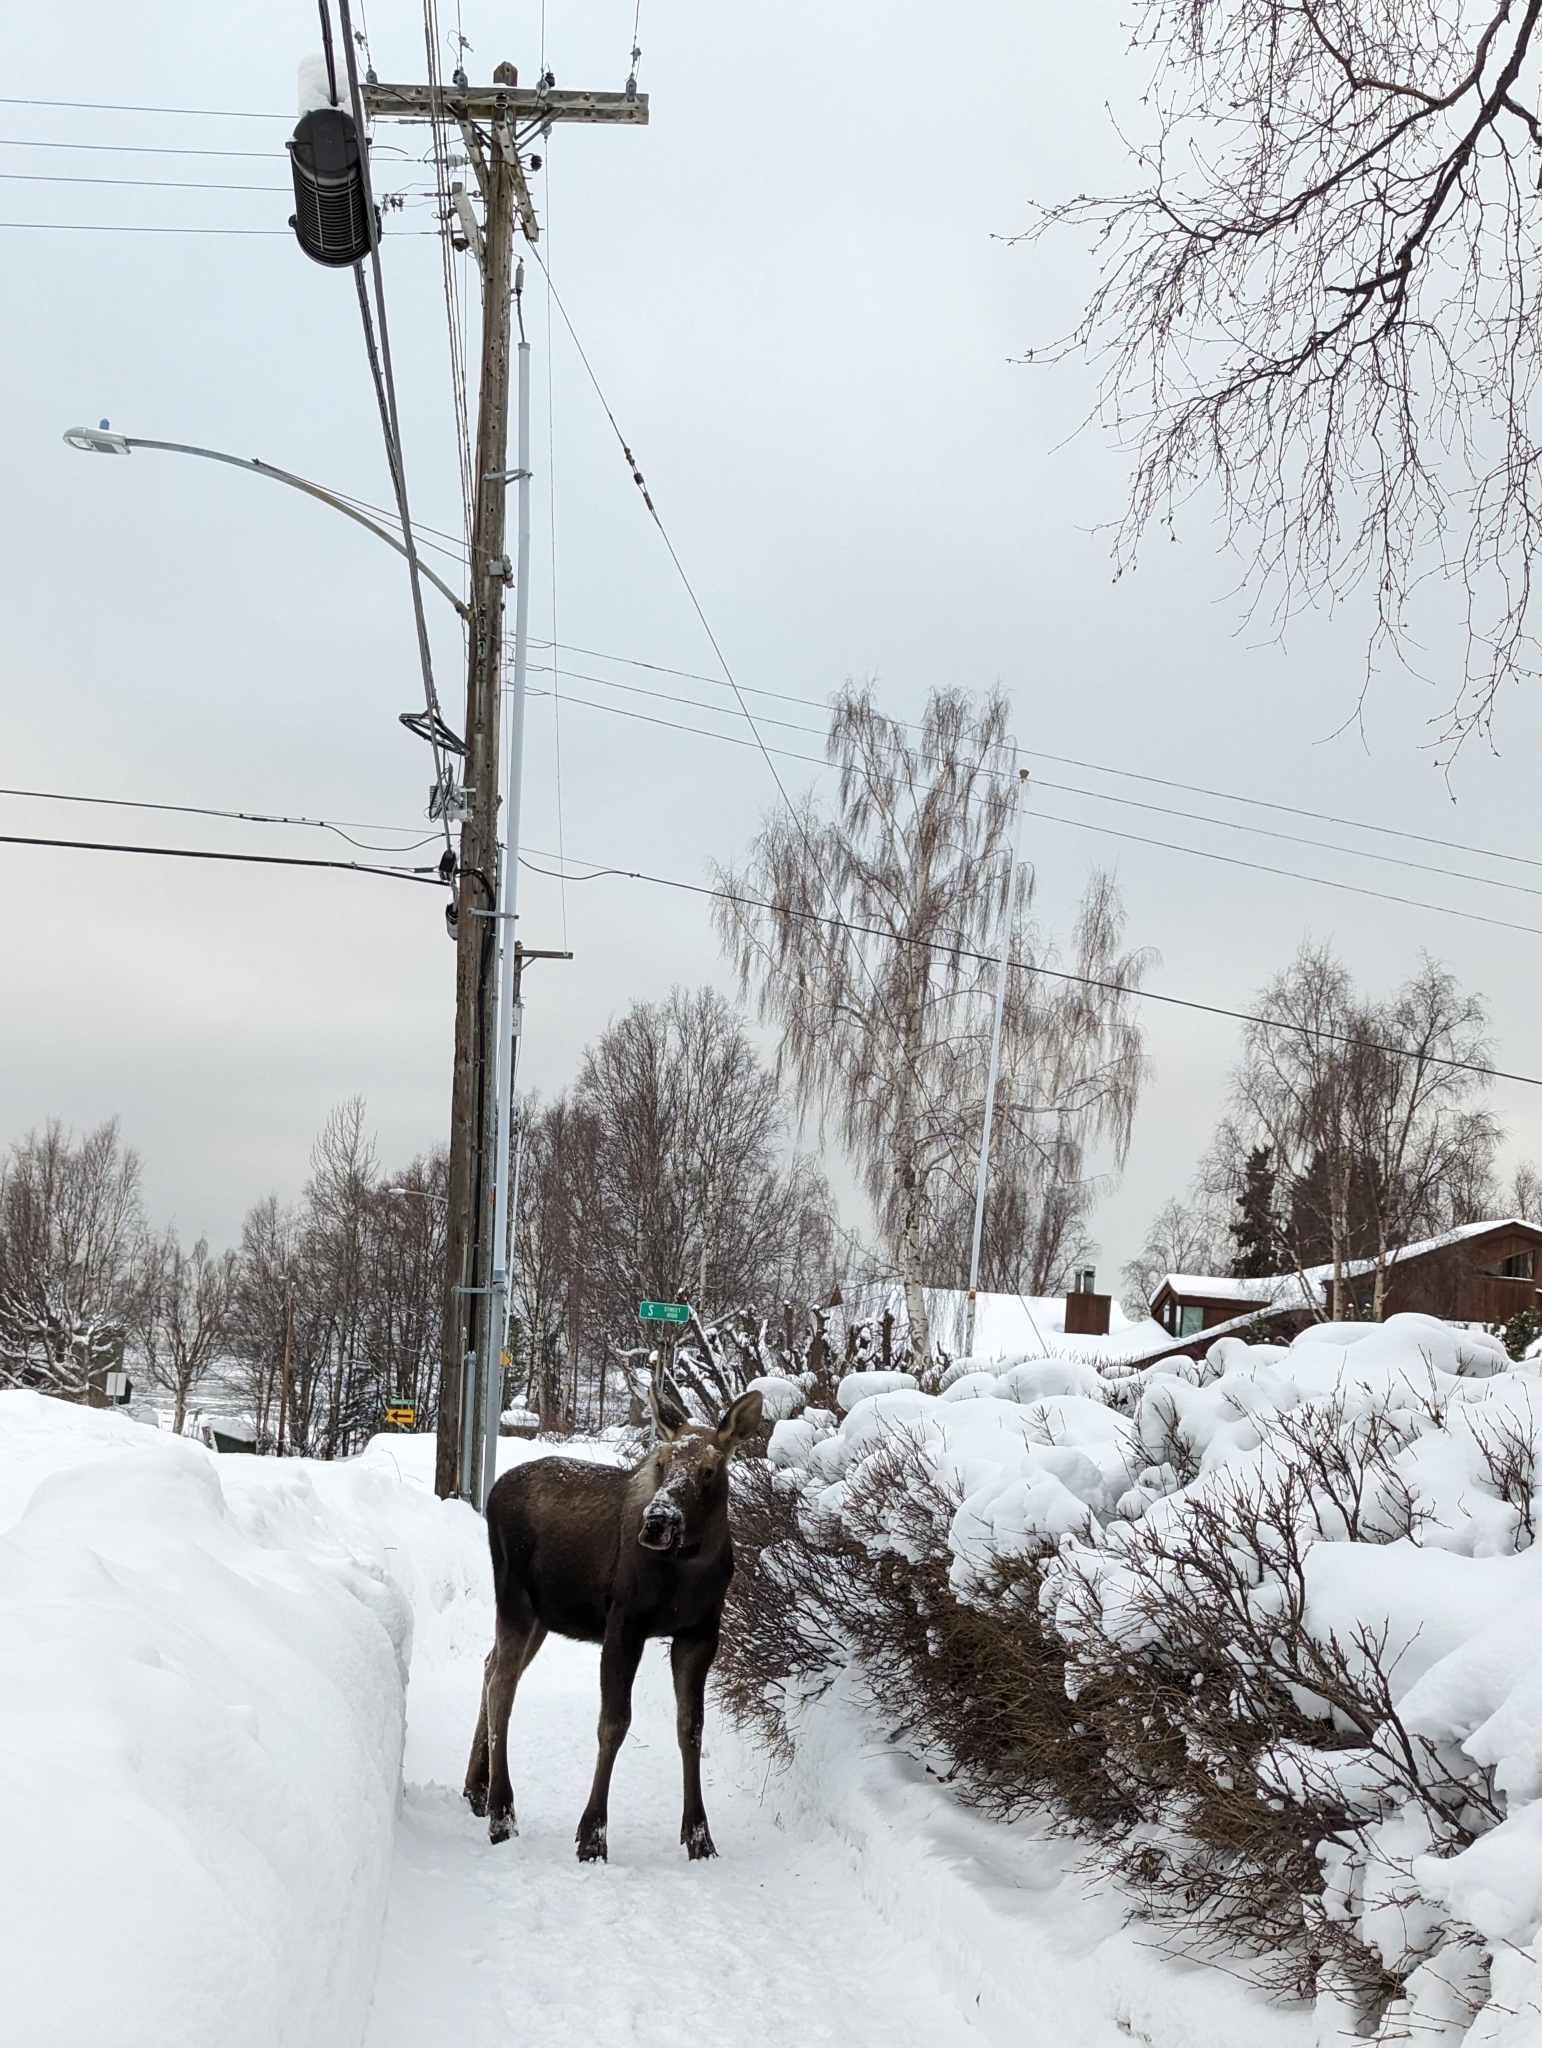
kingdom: Animalia
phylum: Chordata
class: Mammalia
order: Artiodactyla
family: Cervidae
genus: Alces
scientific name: Alces alces
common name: Moose
